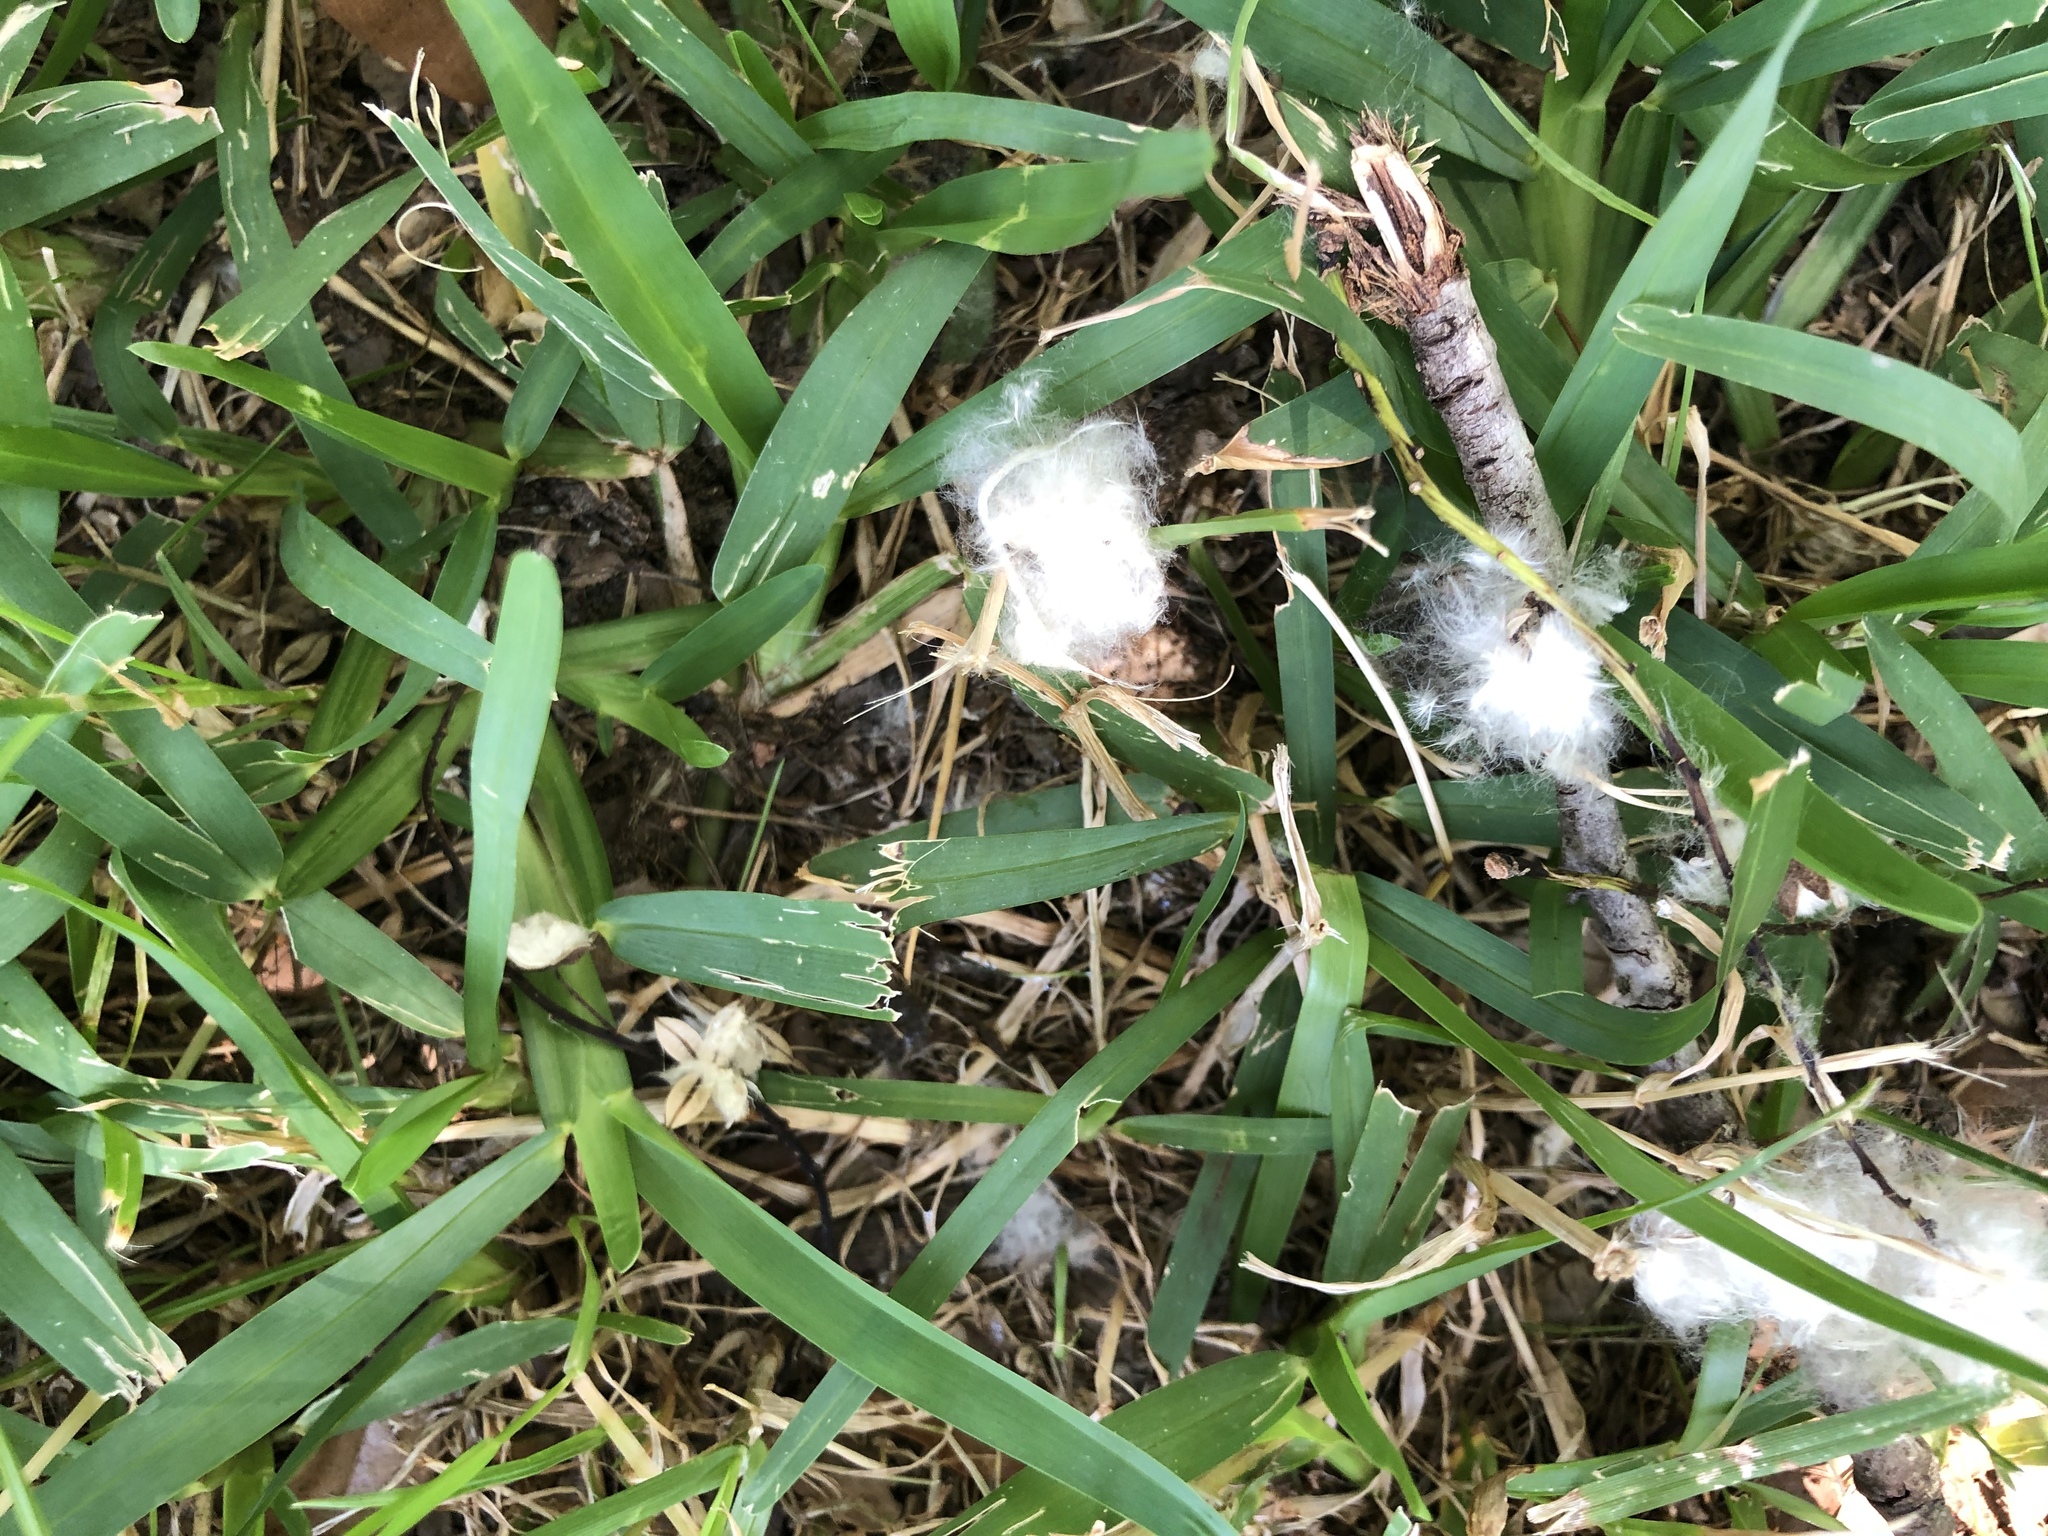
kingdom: Plantae
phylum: Tracheophyta
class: Magnoliopsida
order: Malpighiales
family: Salicaceae
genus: Populus
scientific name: Populus deltoides
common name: Eastern cottonwood
